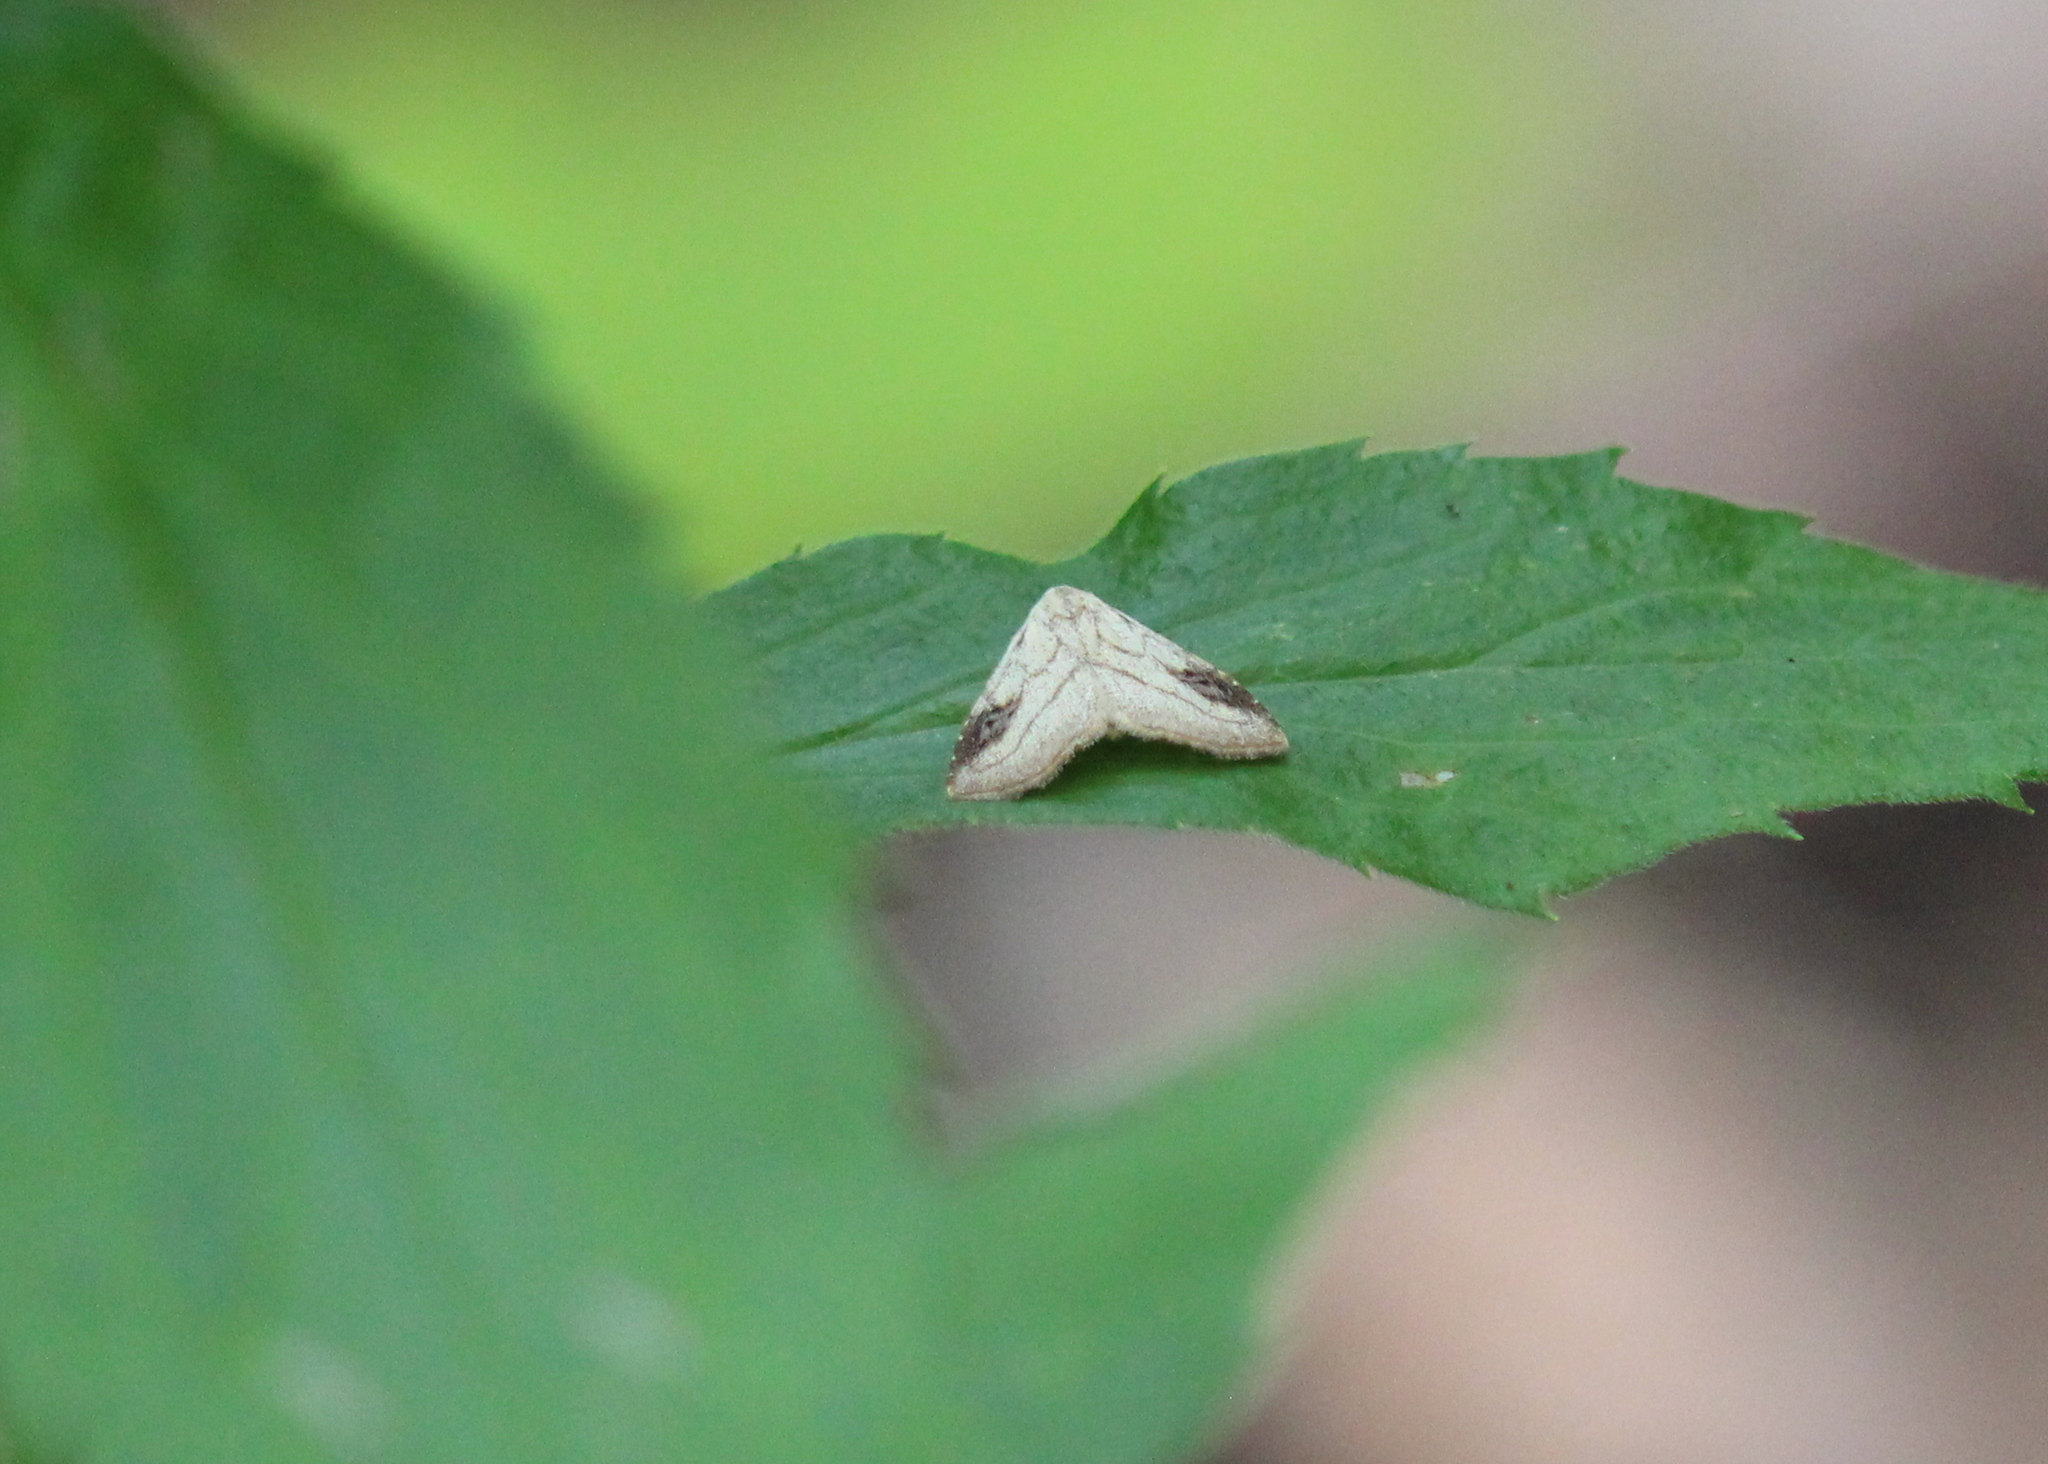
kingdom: Animalia
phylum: Arthropoda
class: Insecta
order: Lepidoptera
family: Erebidae
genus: Rivula
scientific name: Rivula propinqualis
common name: Spotted grass moth
